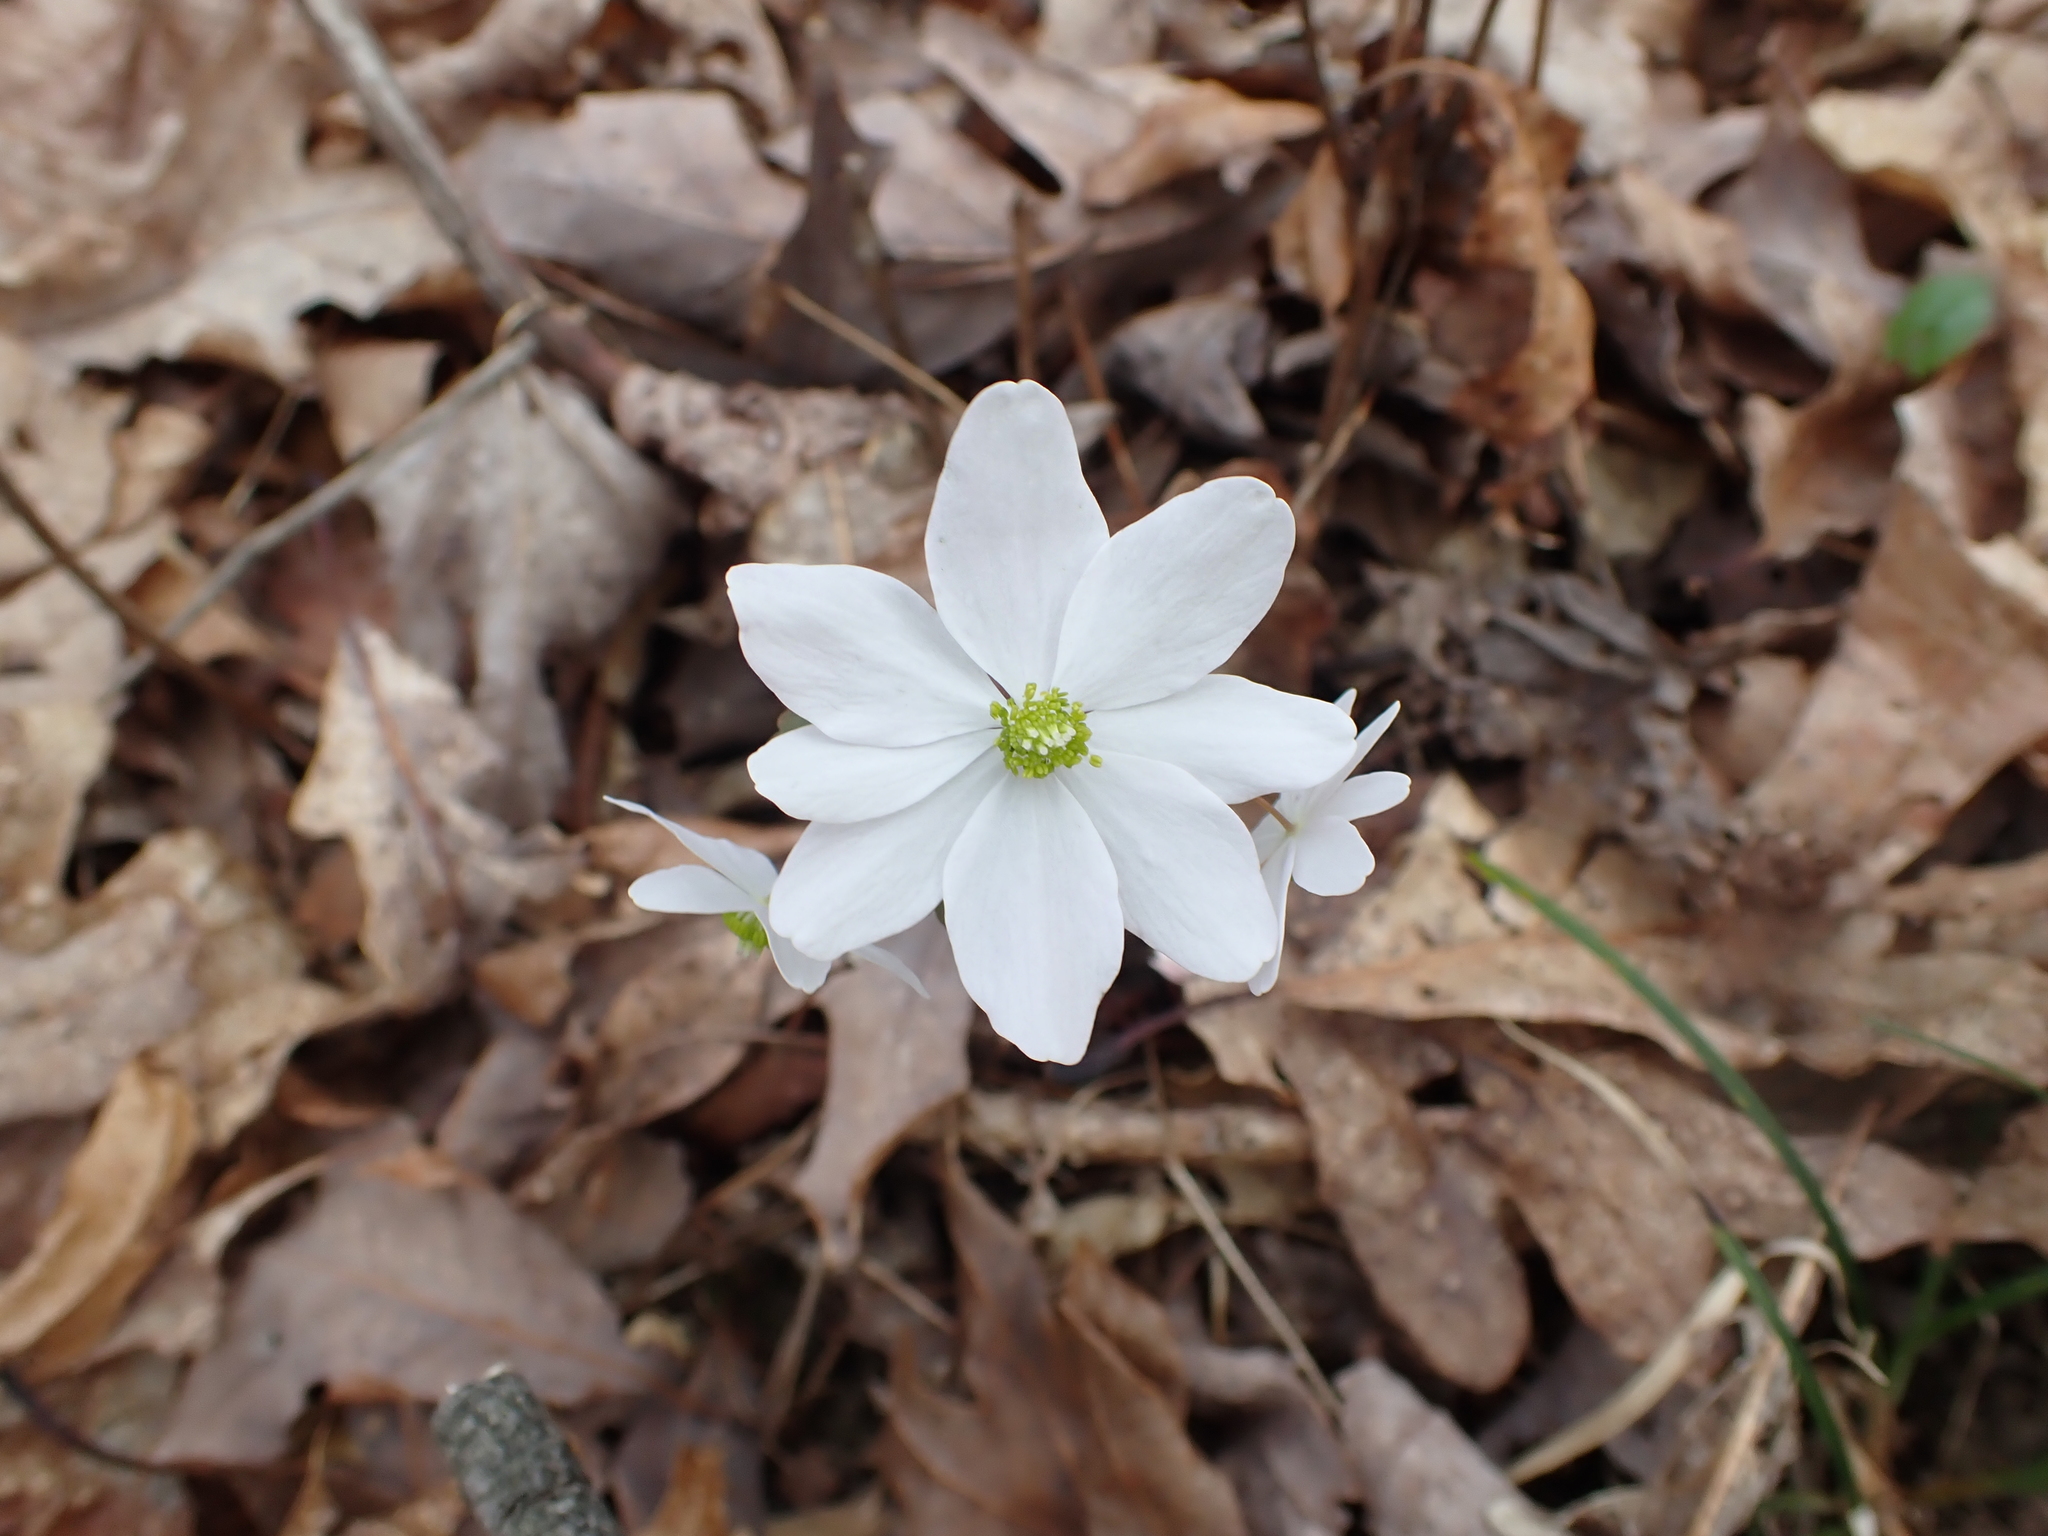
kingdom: Plantae
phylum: Tracheophyta
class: Magnoliopsida
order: Ranunculales
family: Ranunculaceae
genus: Thalictrum
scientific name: Thalictrum thalictroides
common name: Rue-anemone
